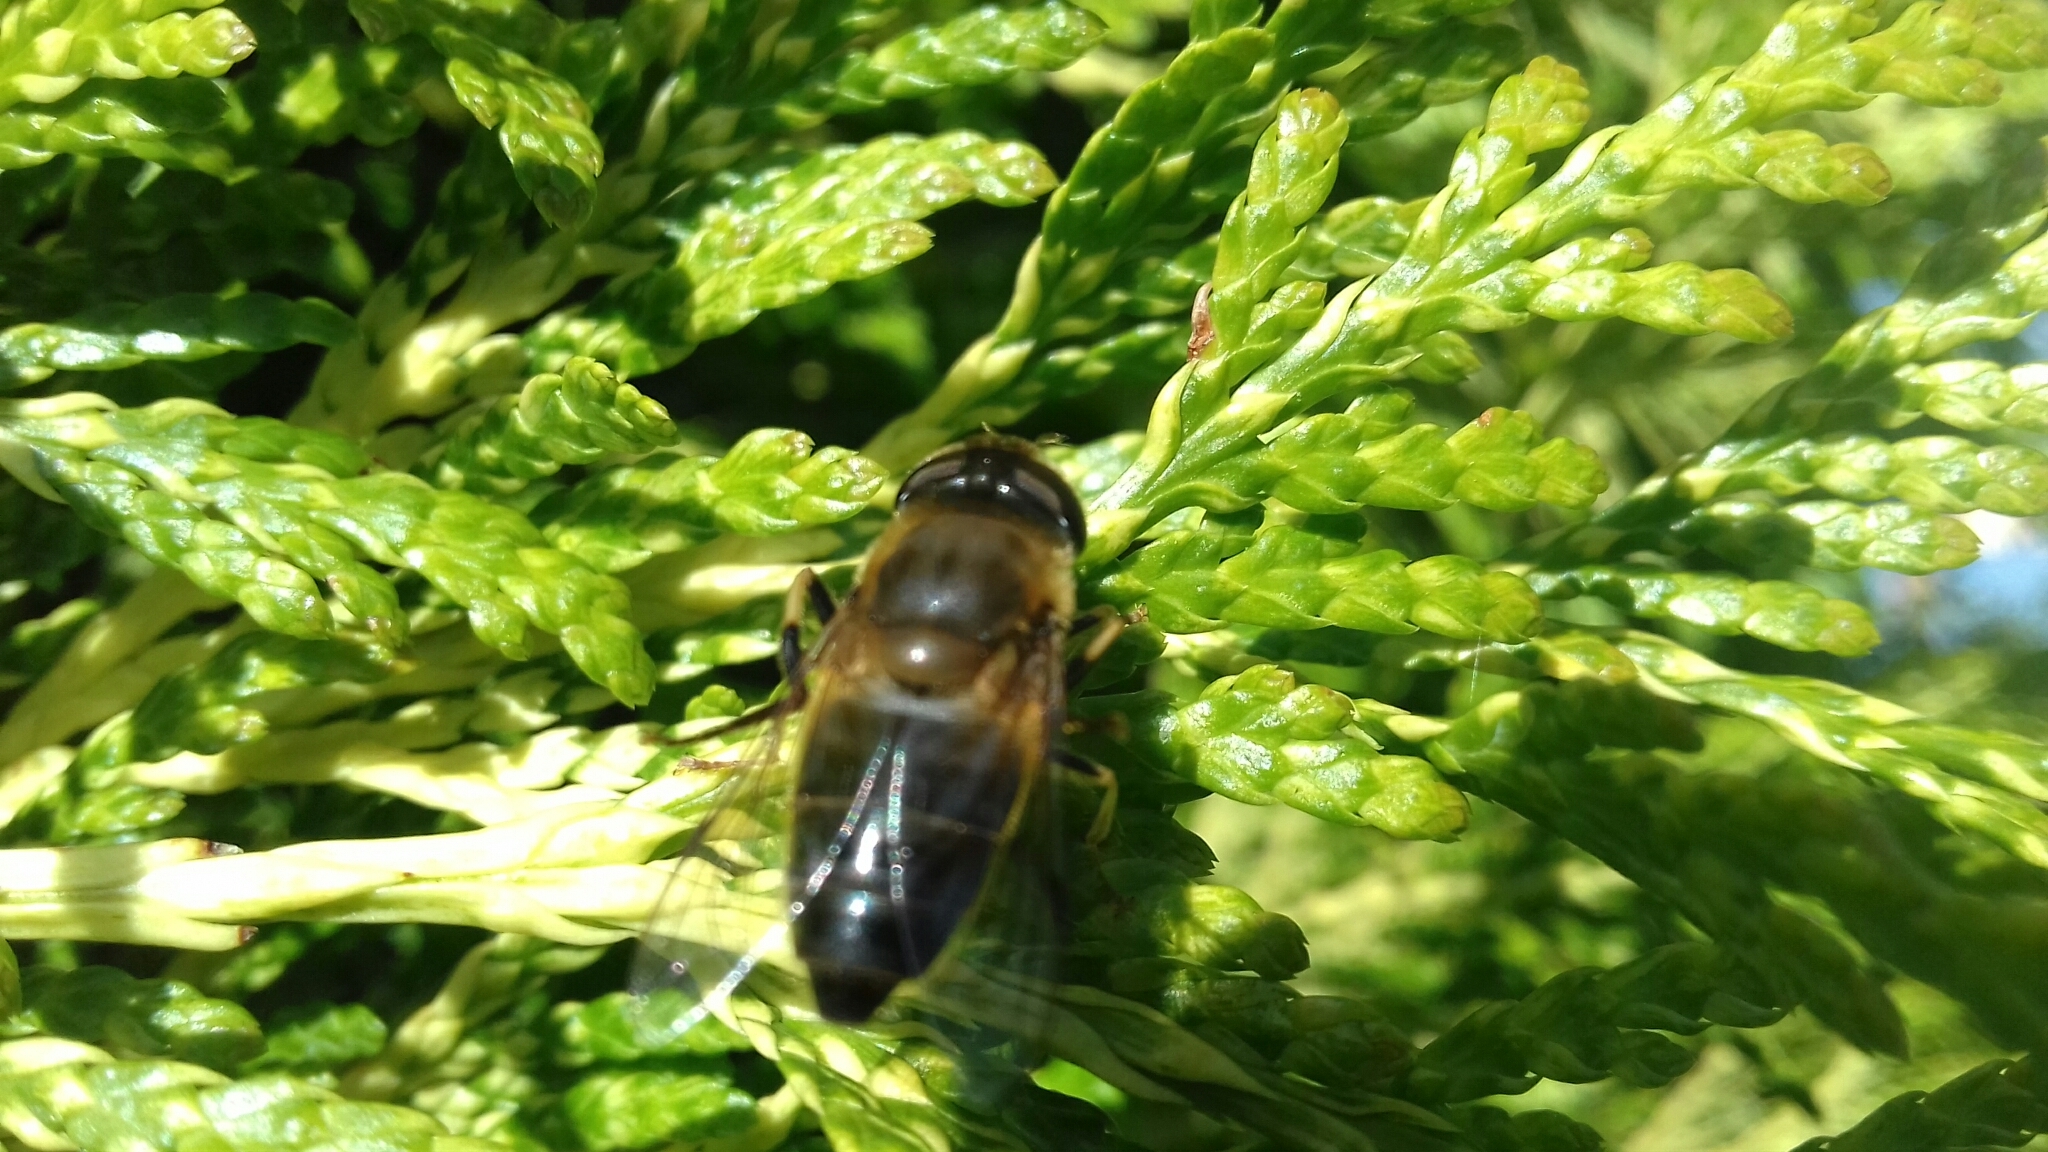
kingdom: Animalia
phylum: Arthropoda
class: Insecta
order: Diptera
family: Syrphidae
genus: Eristalis
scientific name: Eristalis
